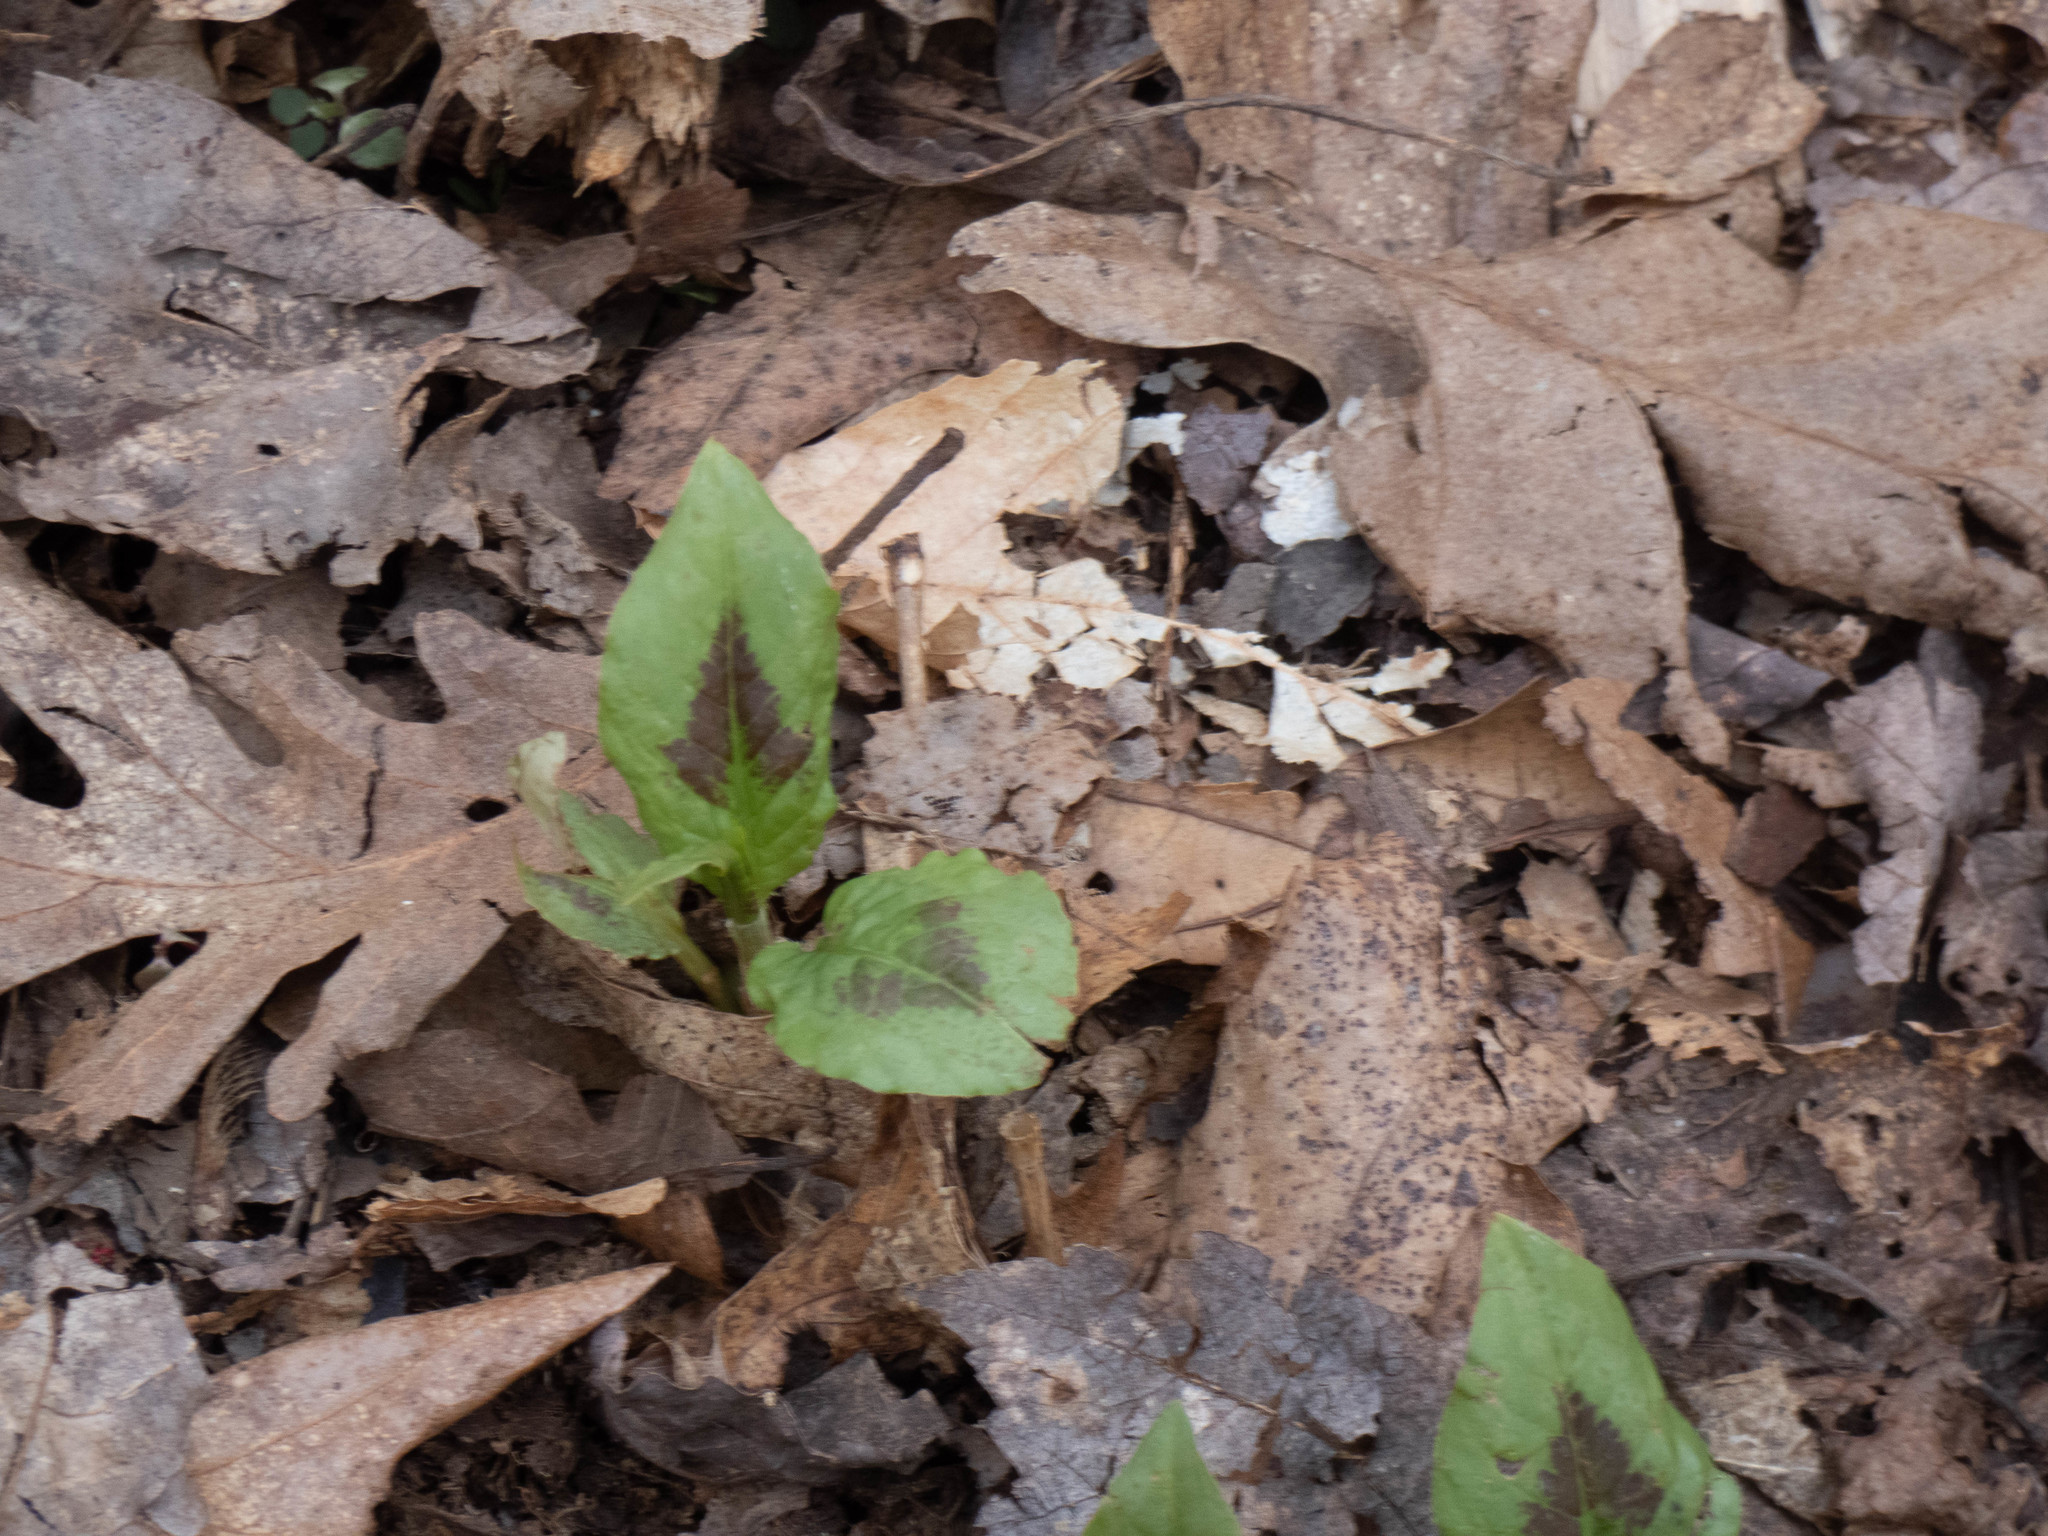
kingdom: Plantae
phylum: Tracheophyta
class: Magnoliopsida
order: Caryophyllales
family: Polygonaceae
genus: Persicaria
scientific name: Persicaria virginiana
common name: Jumpseed
